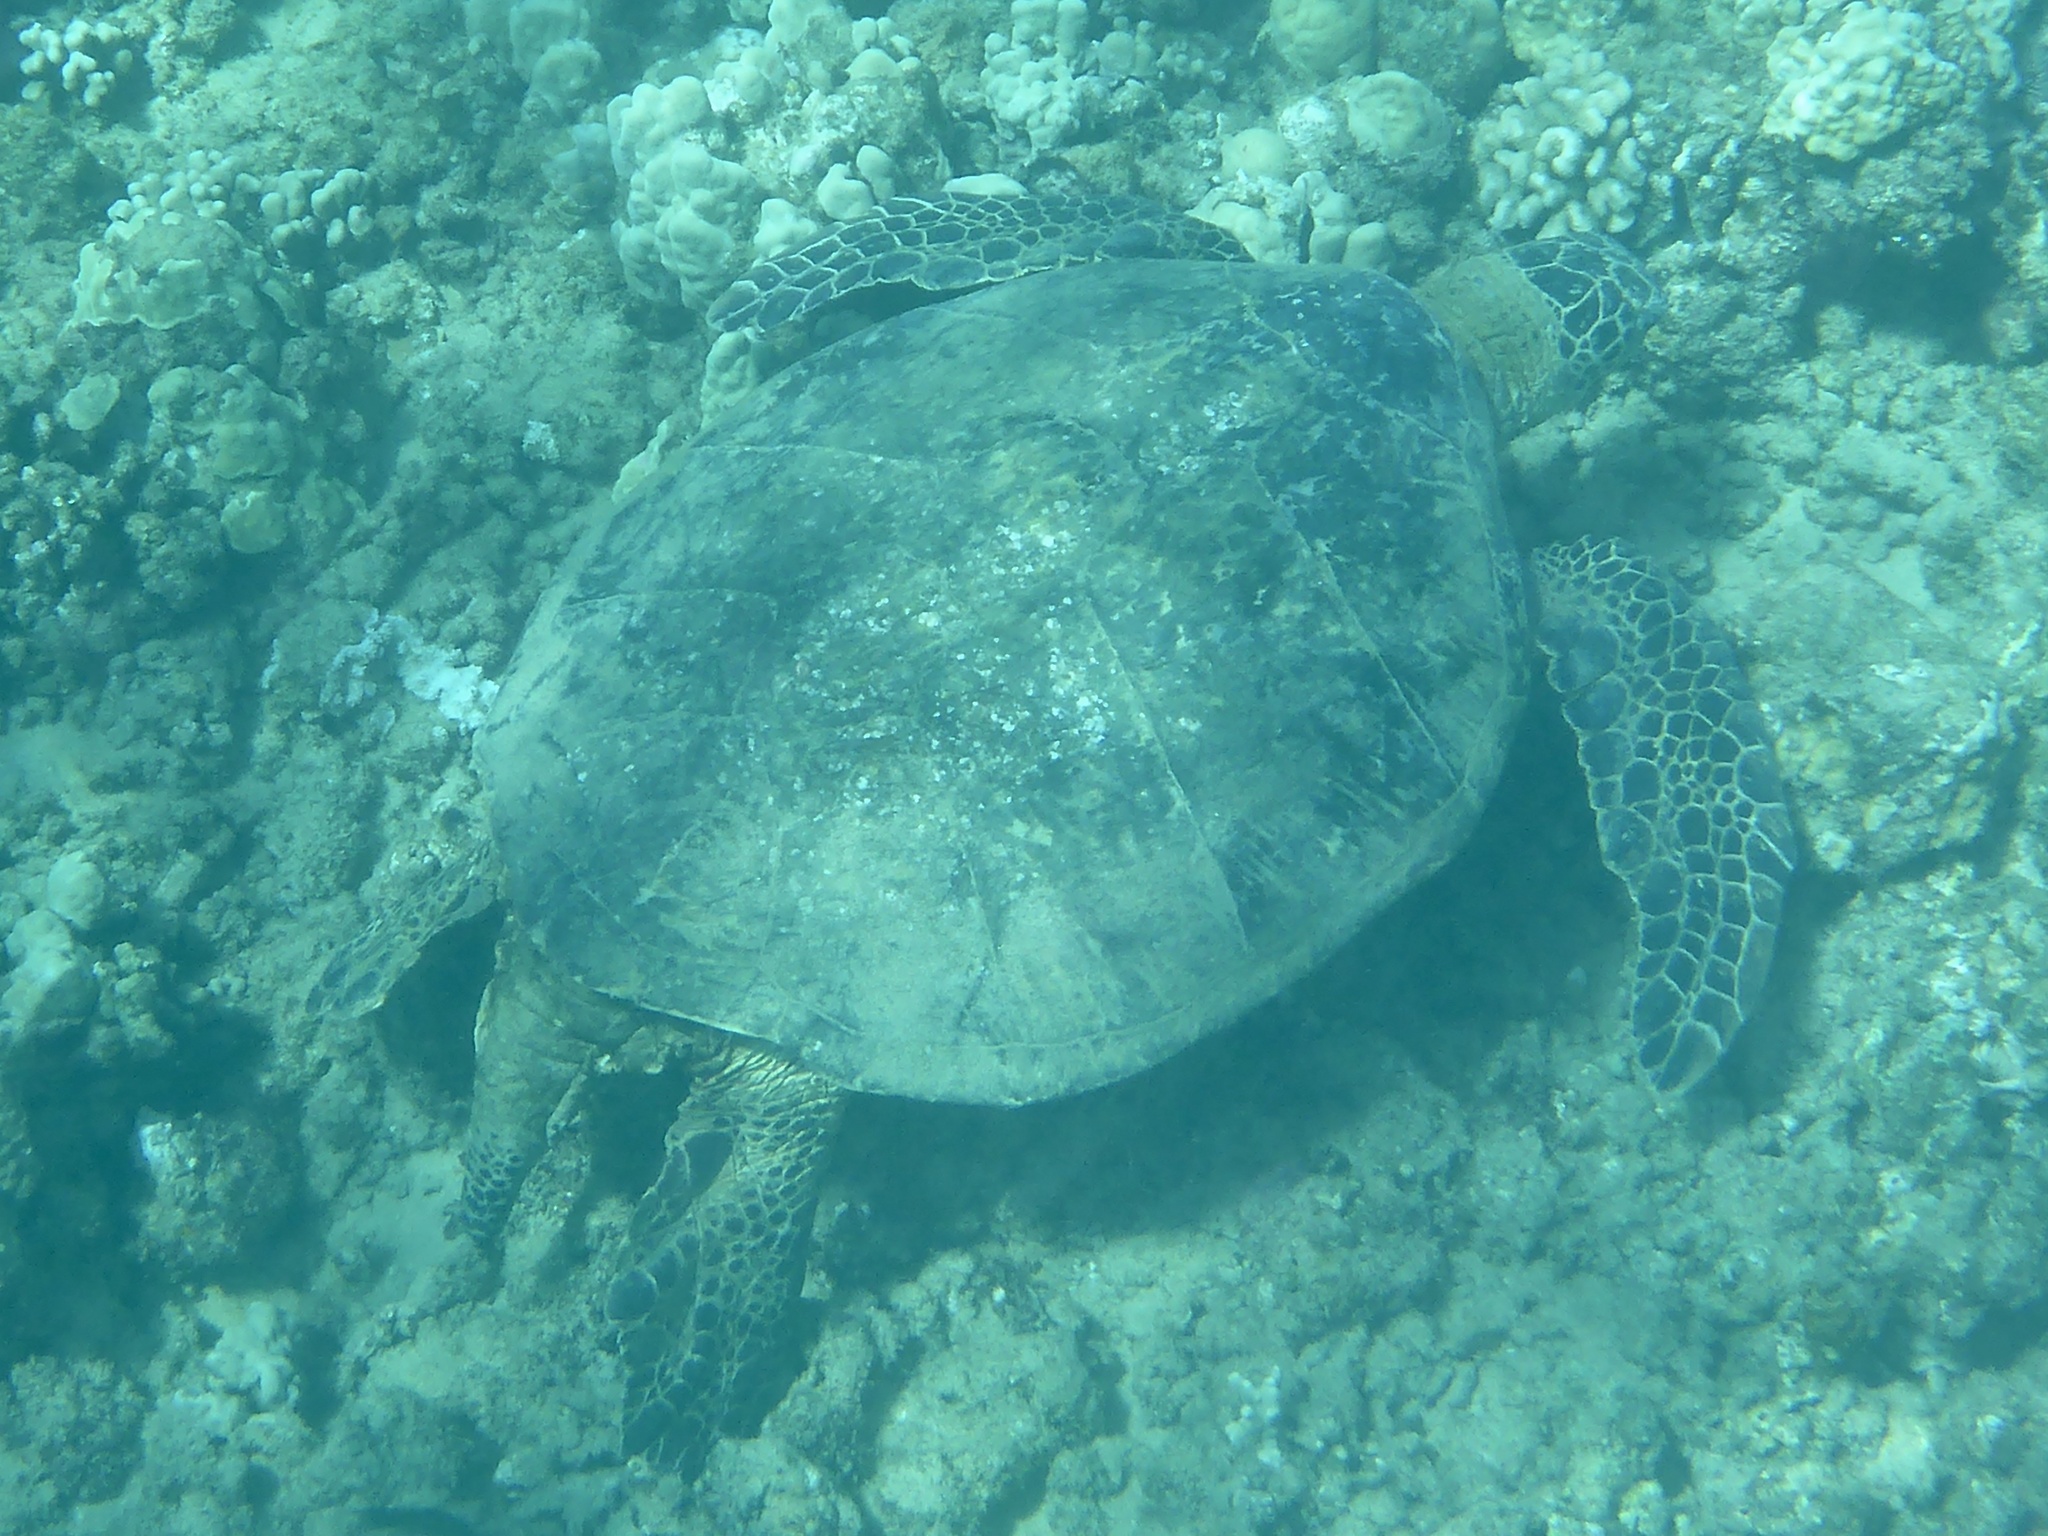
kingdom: Animalia
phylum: Chordata
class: Testudines
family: Cheloniidae
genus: Chelonia
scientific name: Chelonia mydas
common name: Green turtle
